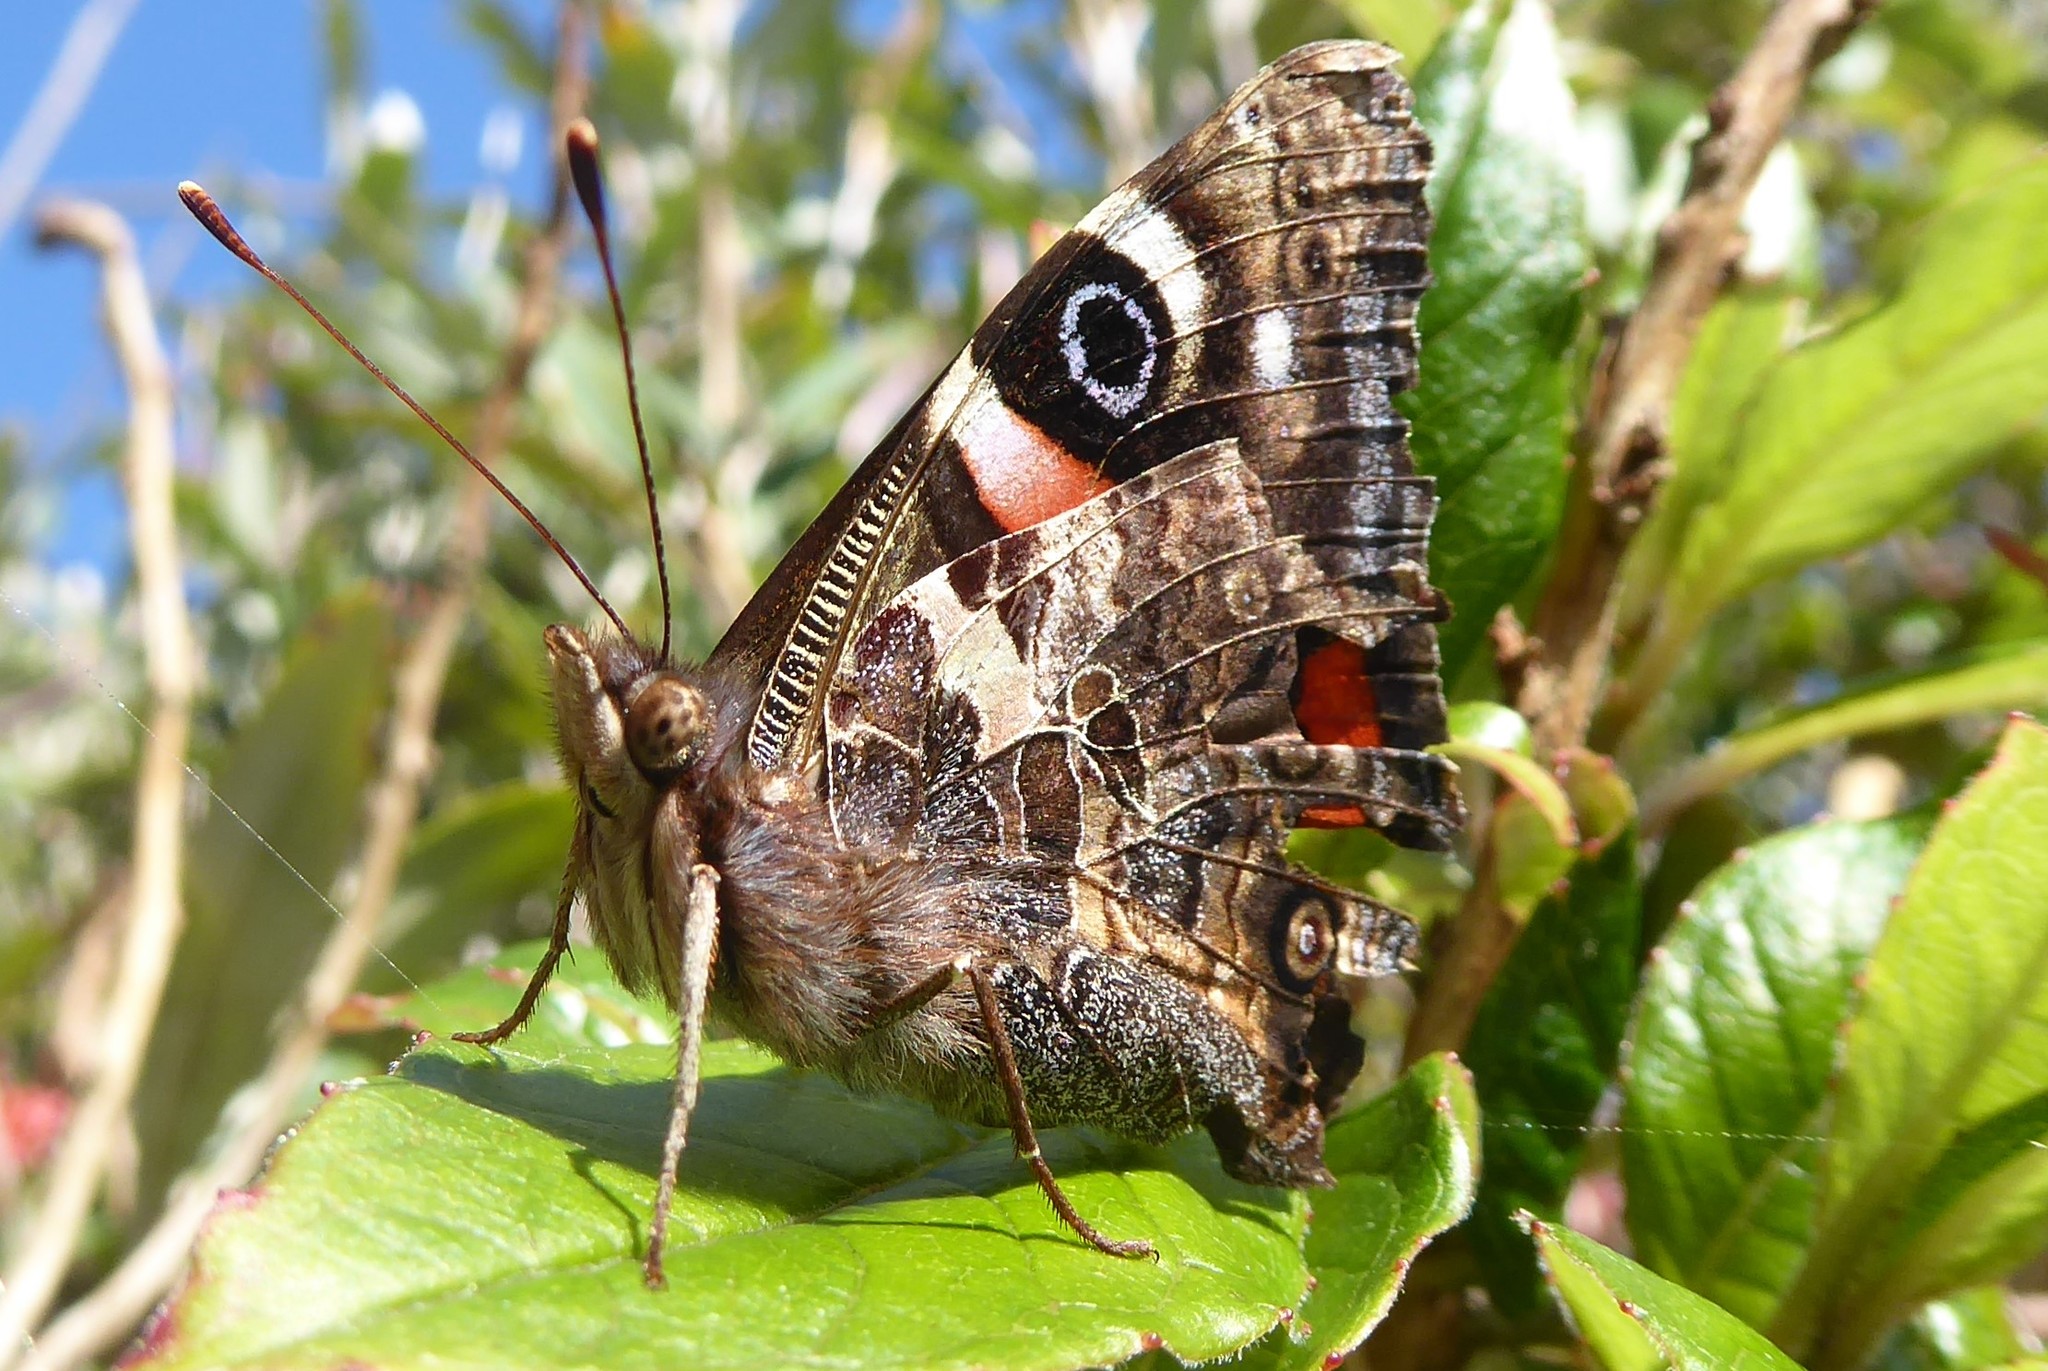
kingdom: Animalia
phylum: Arthropoda
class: Insecta
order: Lepidoptera
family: Nymphalidae
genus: Vanessa
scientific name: Vanessa gonerilla
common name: New zealand red admiral
